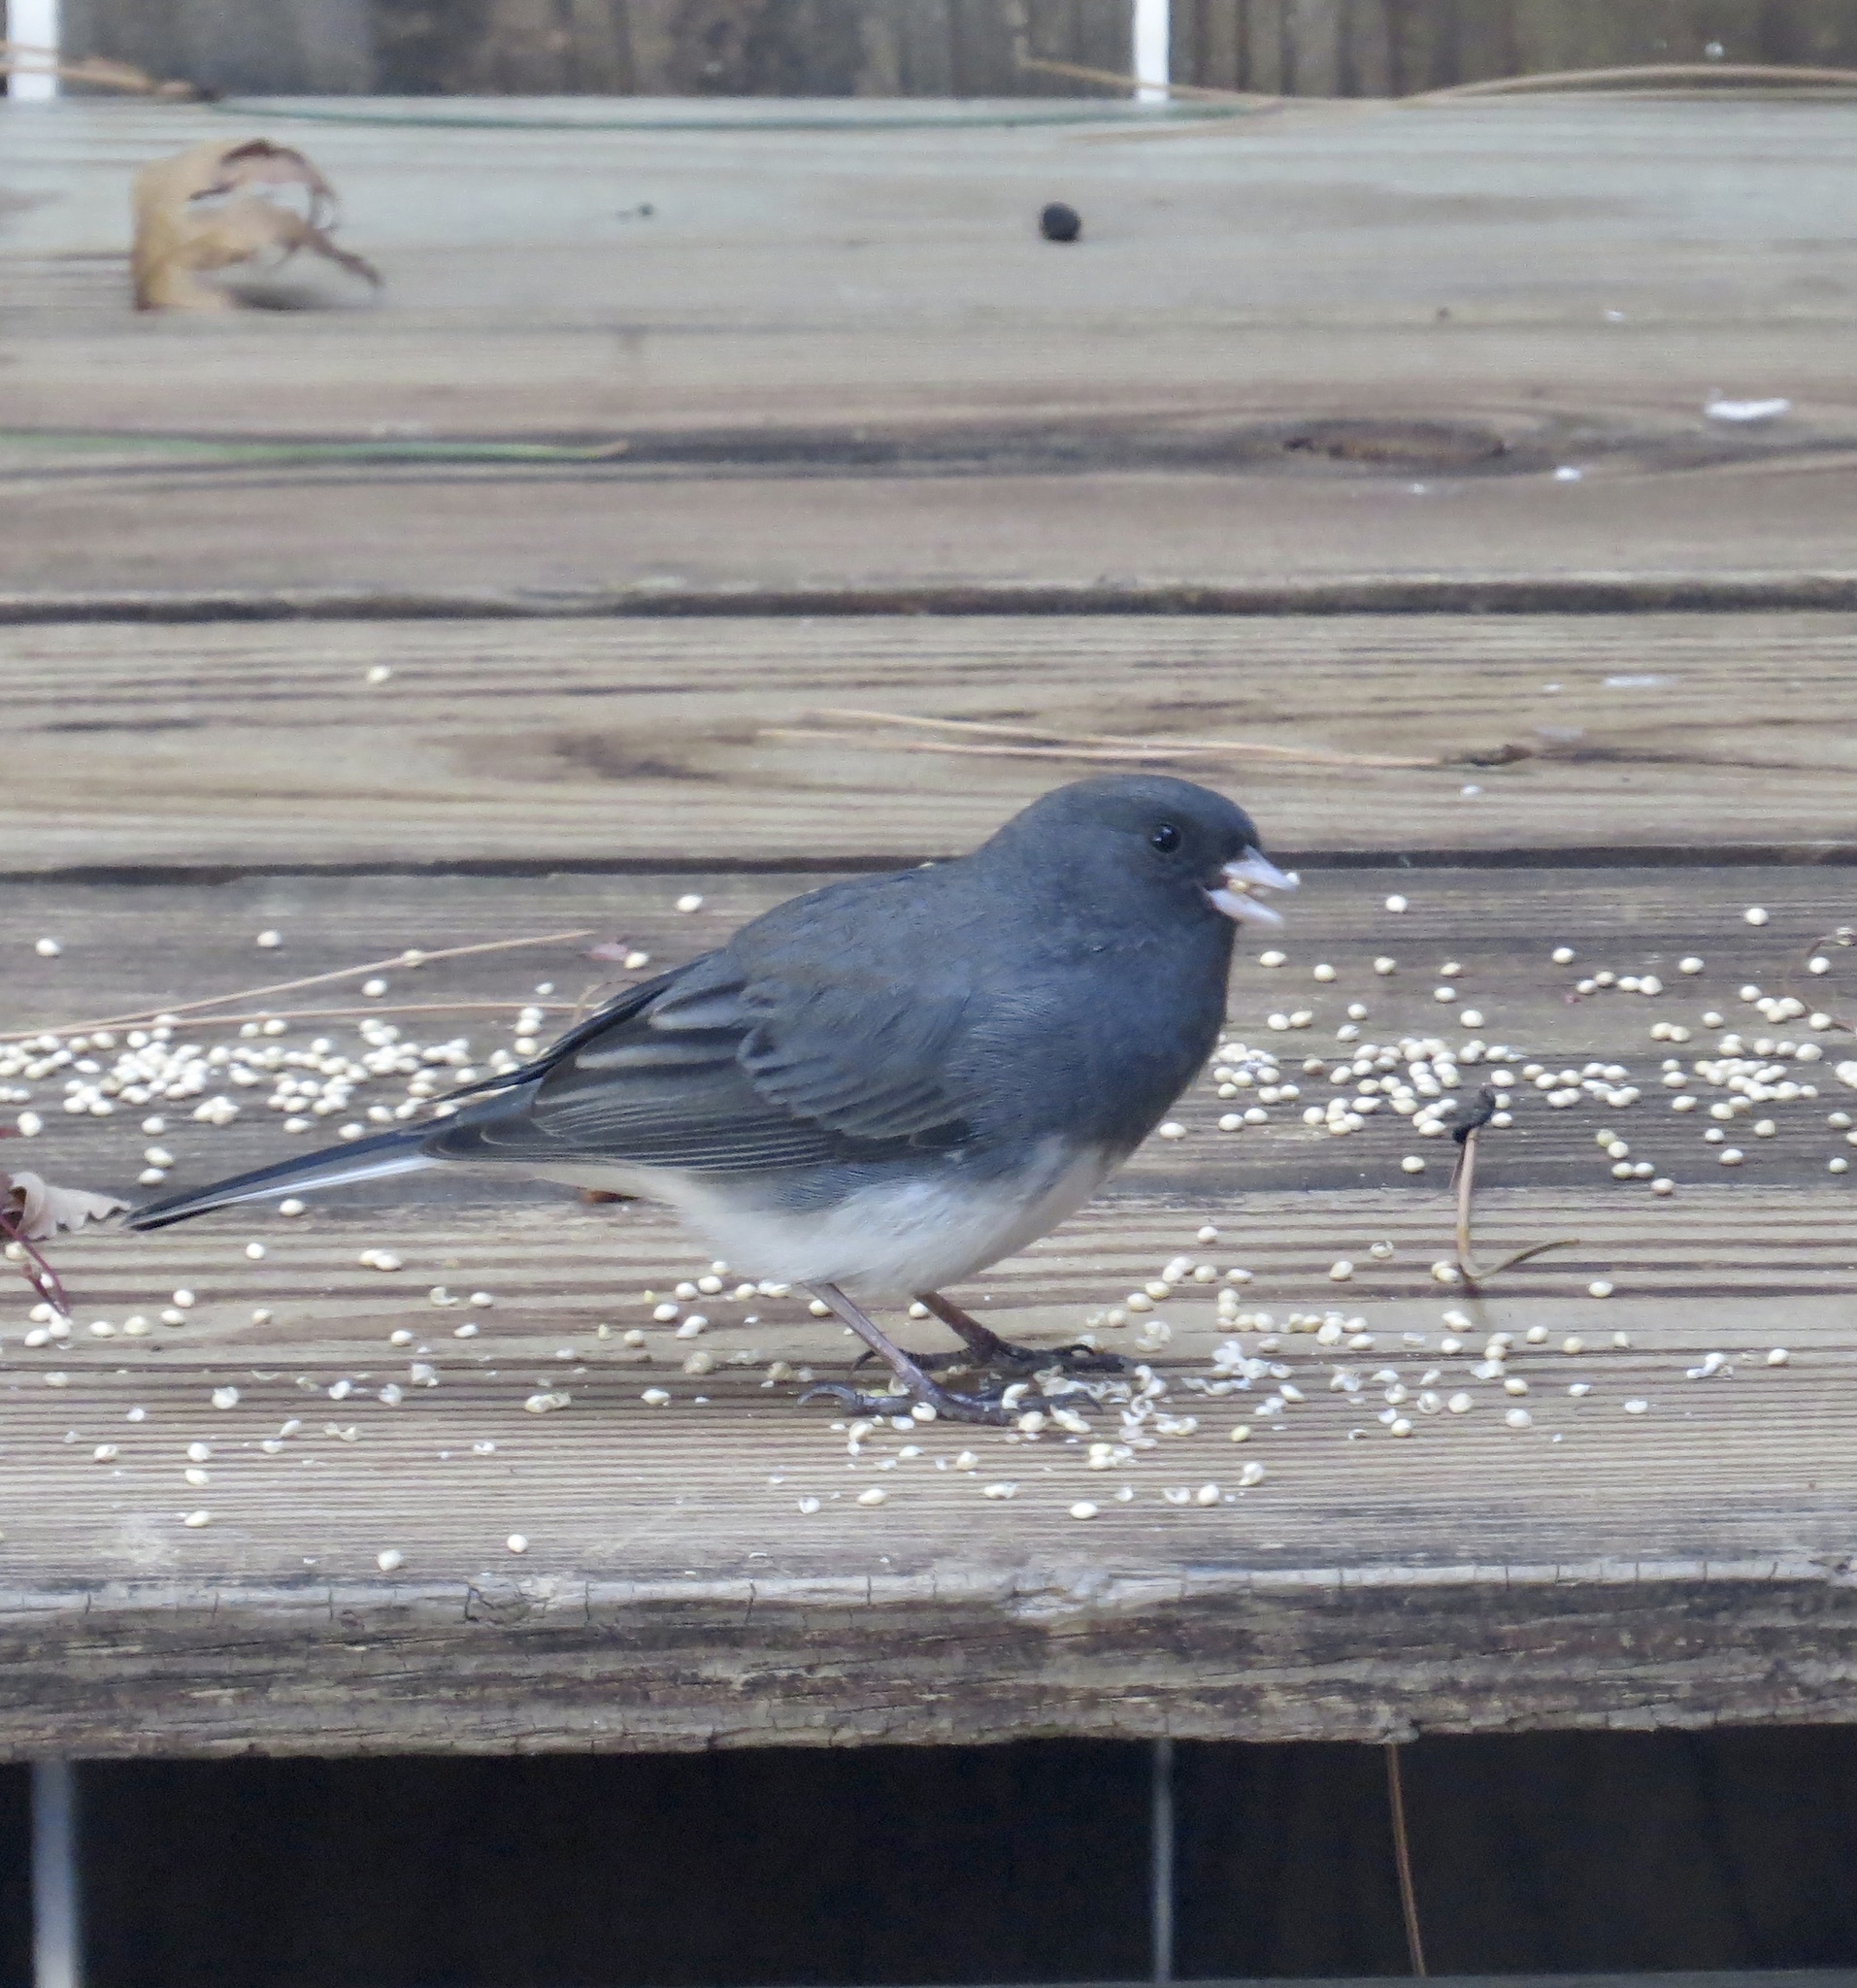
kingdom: Animalia
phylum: Chordata
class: Aves
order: Passeriformes
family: Passerellidae
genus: Junco
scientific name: Junco hyemalis
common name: Dark-eyed junco
